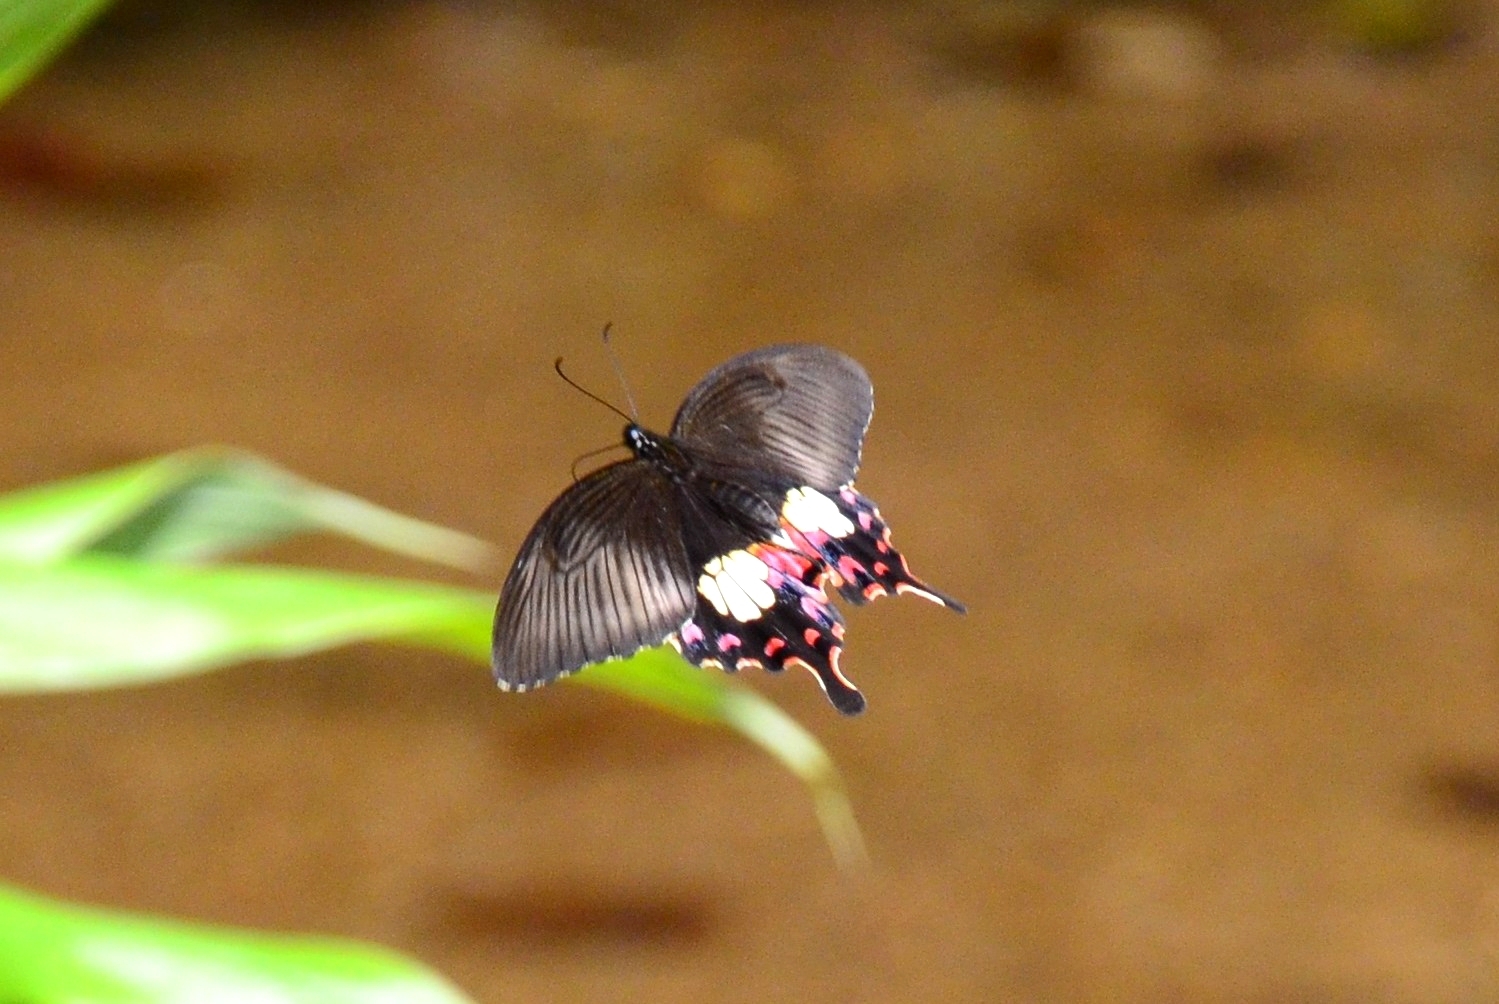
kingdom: Animalia
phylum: Arthropoda
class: Insecta
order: Lepidoptera
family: Papilionidae
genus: Papilio
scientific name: Papilio polytes
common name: Common mormon
